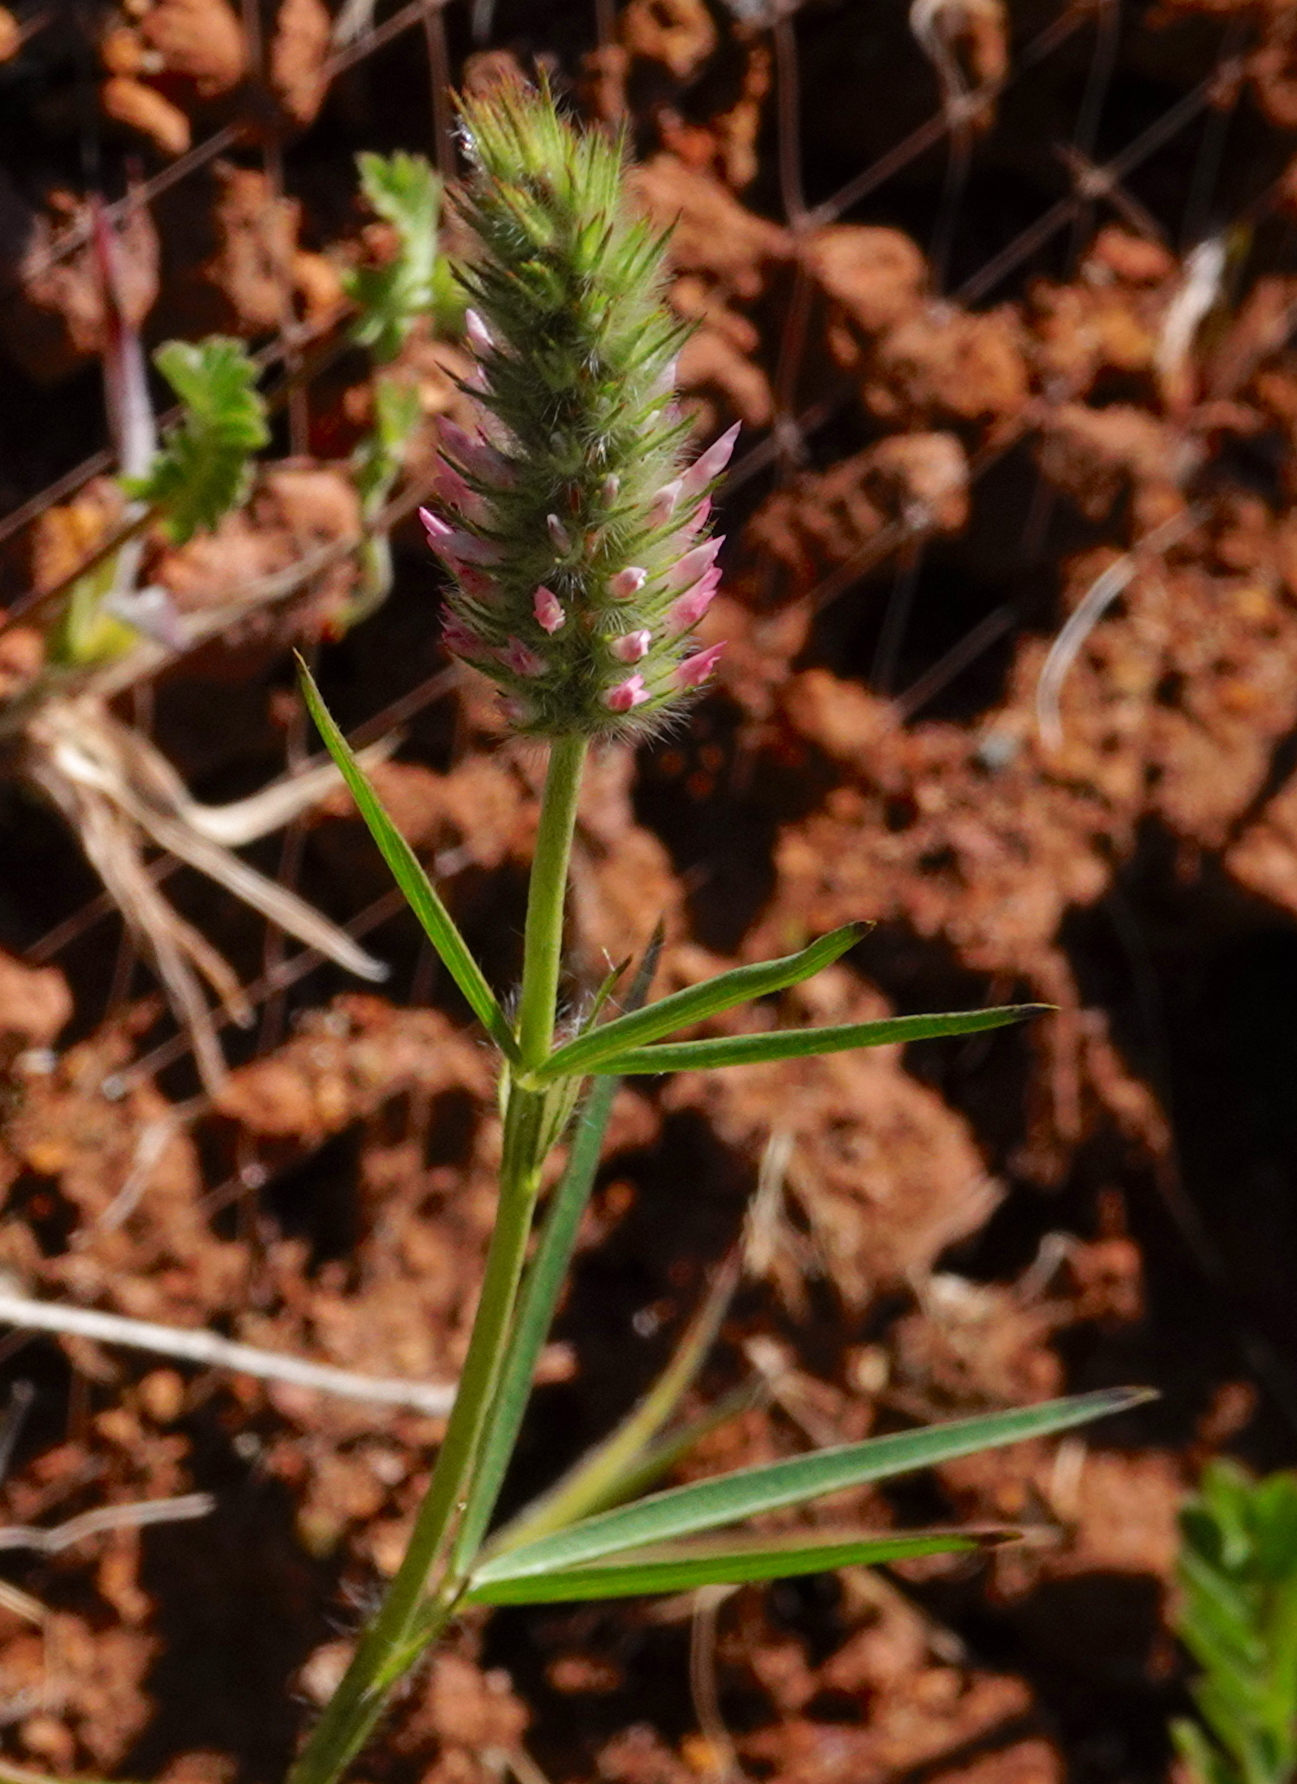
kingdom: Plantae
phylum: Tracheophyta
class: Magnoliopsida
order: Fabales
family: Fabaceae
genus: Trifolium
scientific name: Trifolium angustifolium
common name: Narrow clover
